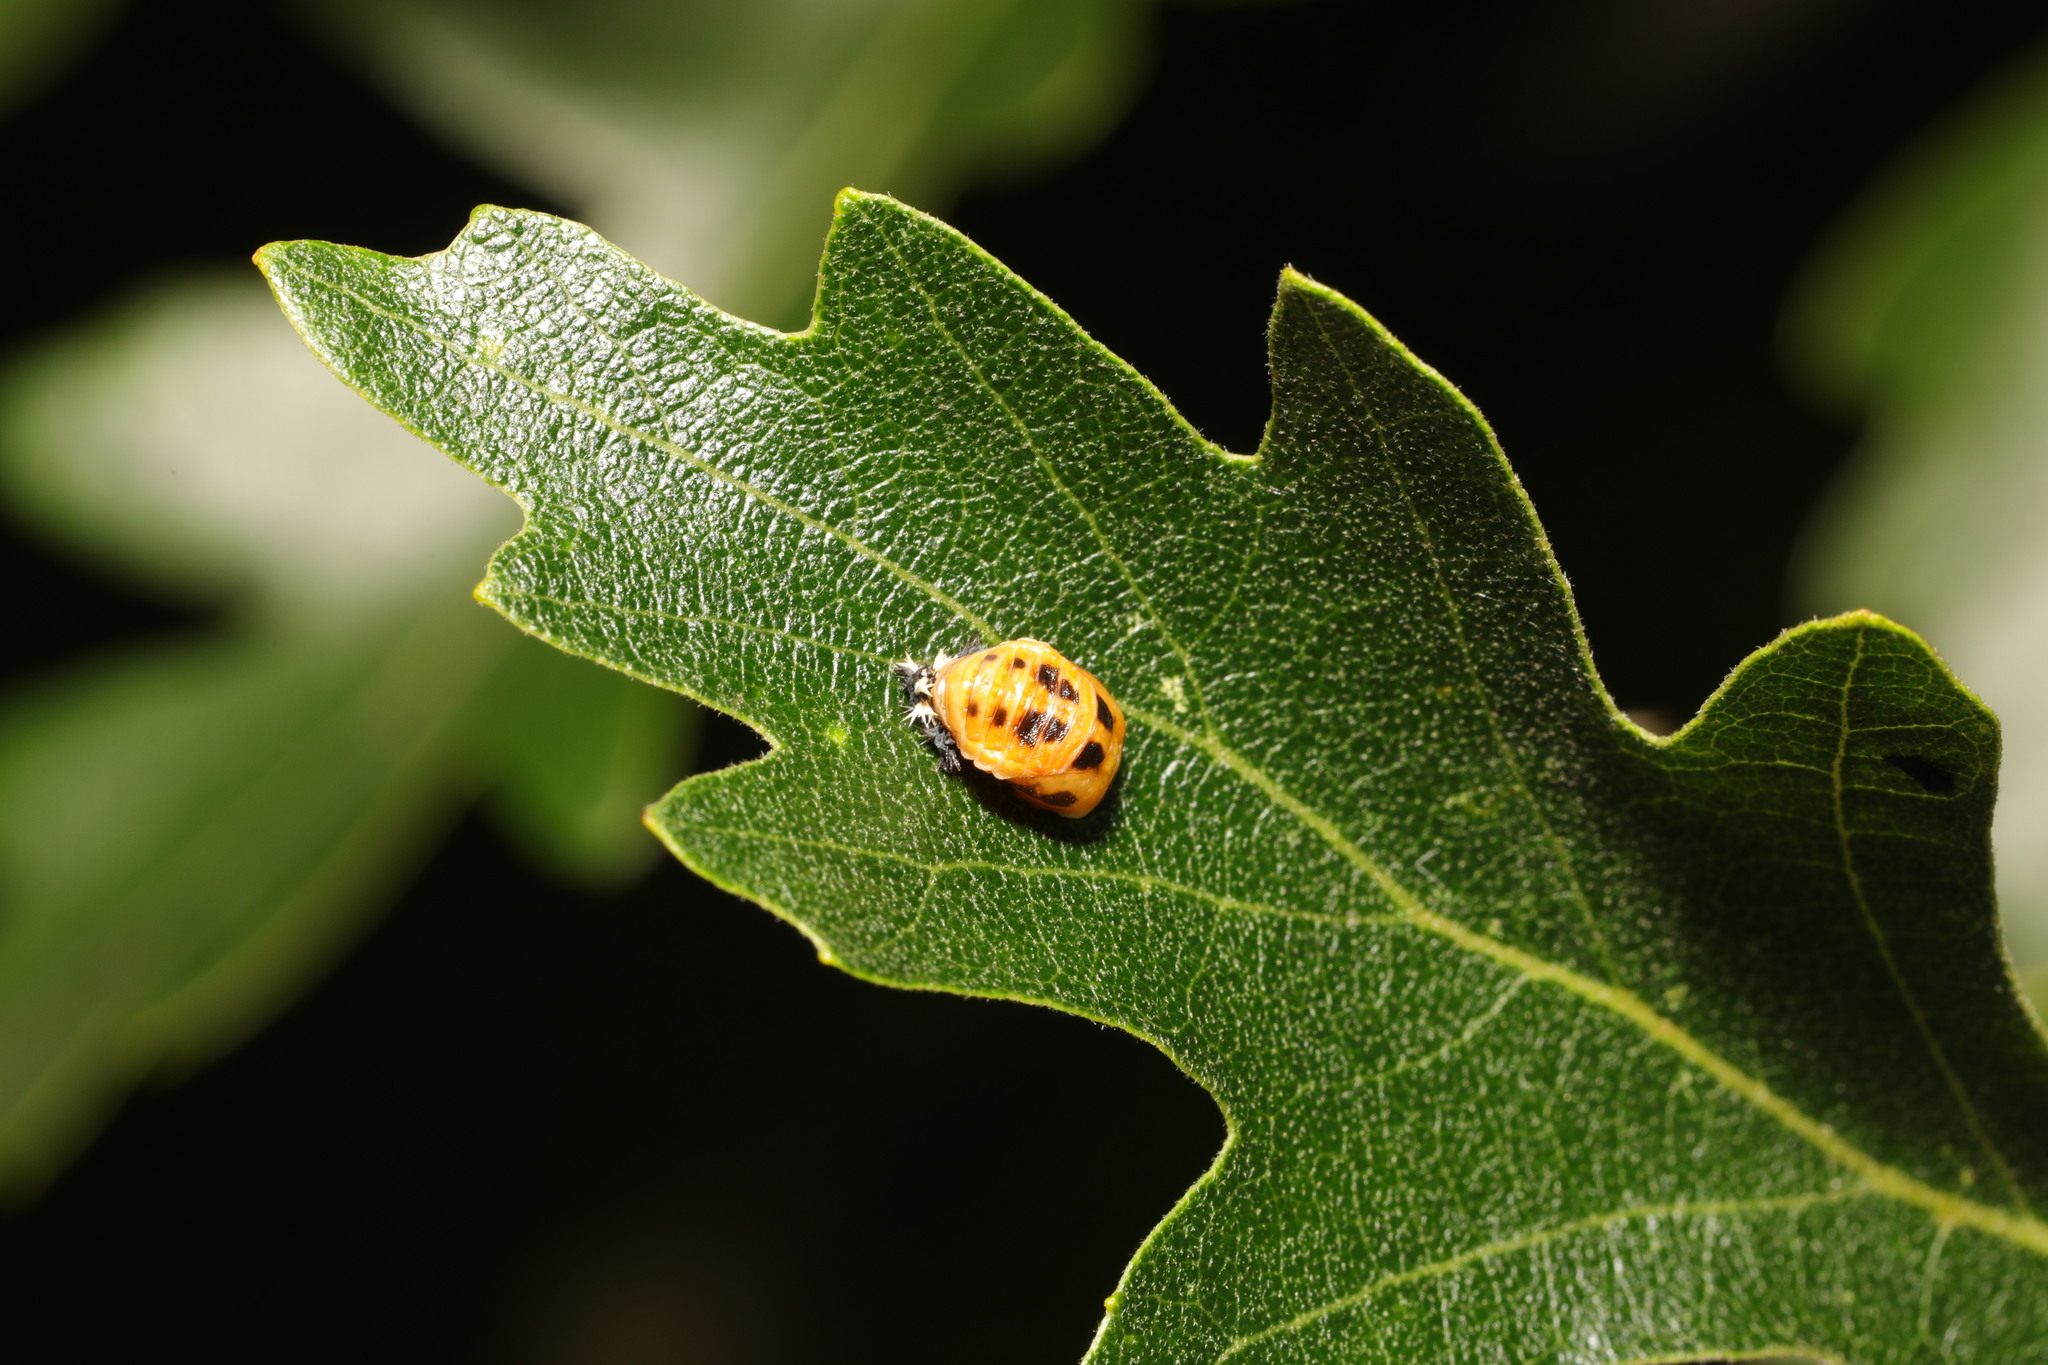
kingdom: Animalia
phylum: Arthropoda
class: Insecta
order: Coleoptera
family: Coccinellidae
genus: Harmonia
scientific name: Harmonia axyridis
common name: Harlequin ladybird
